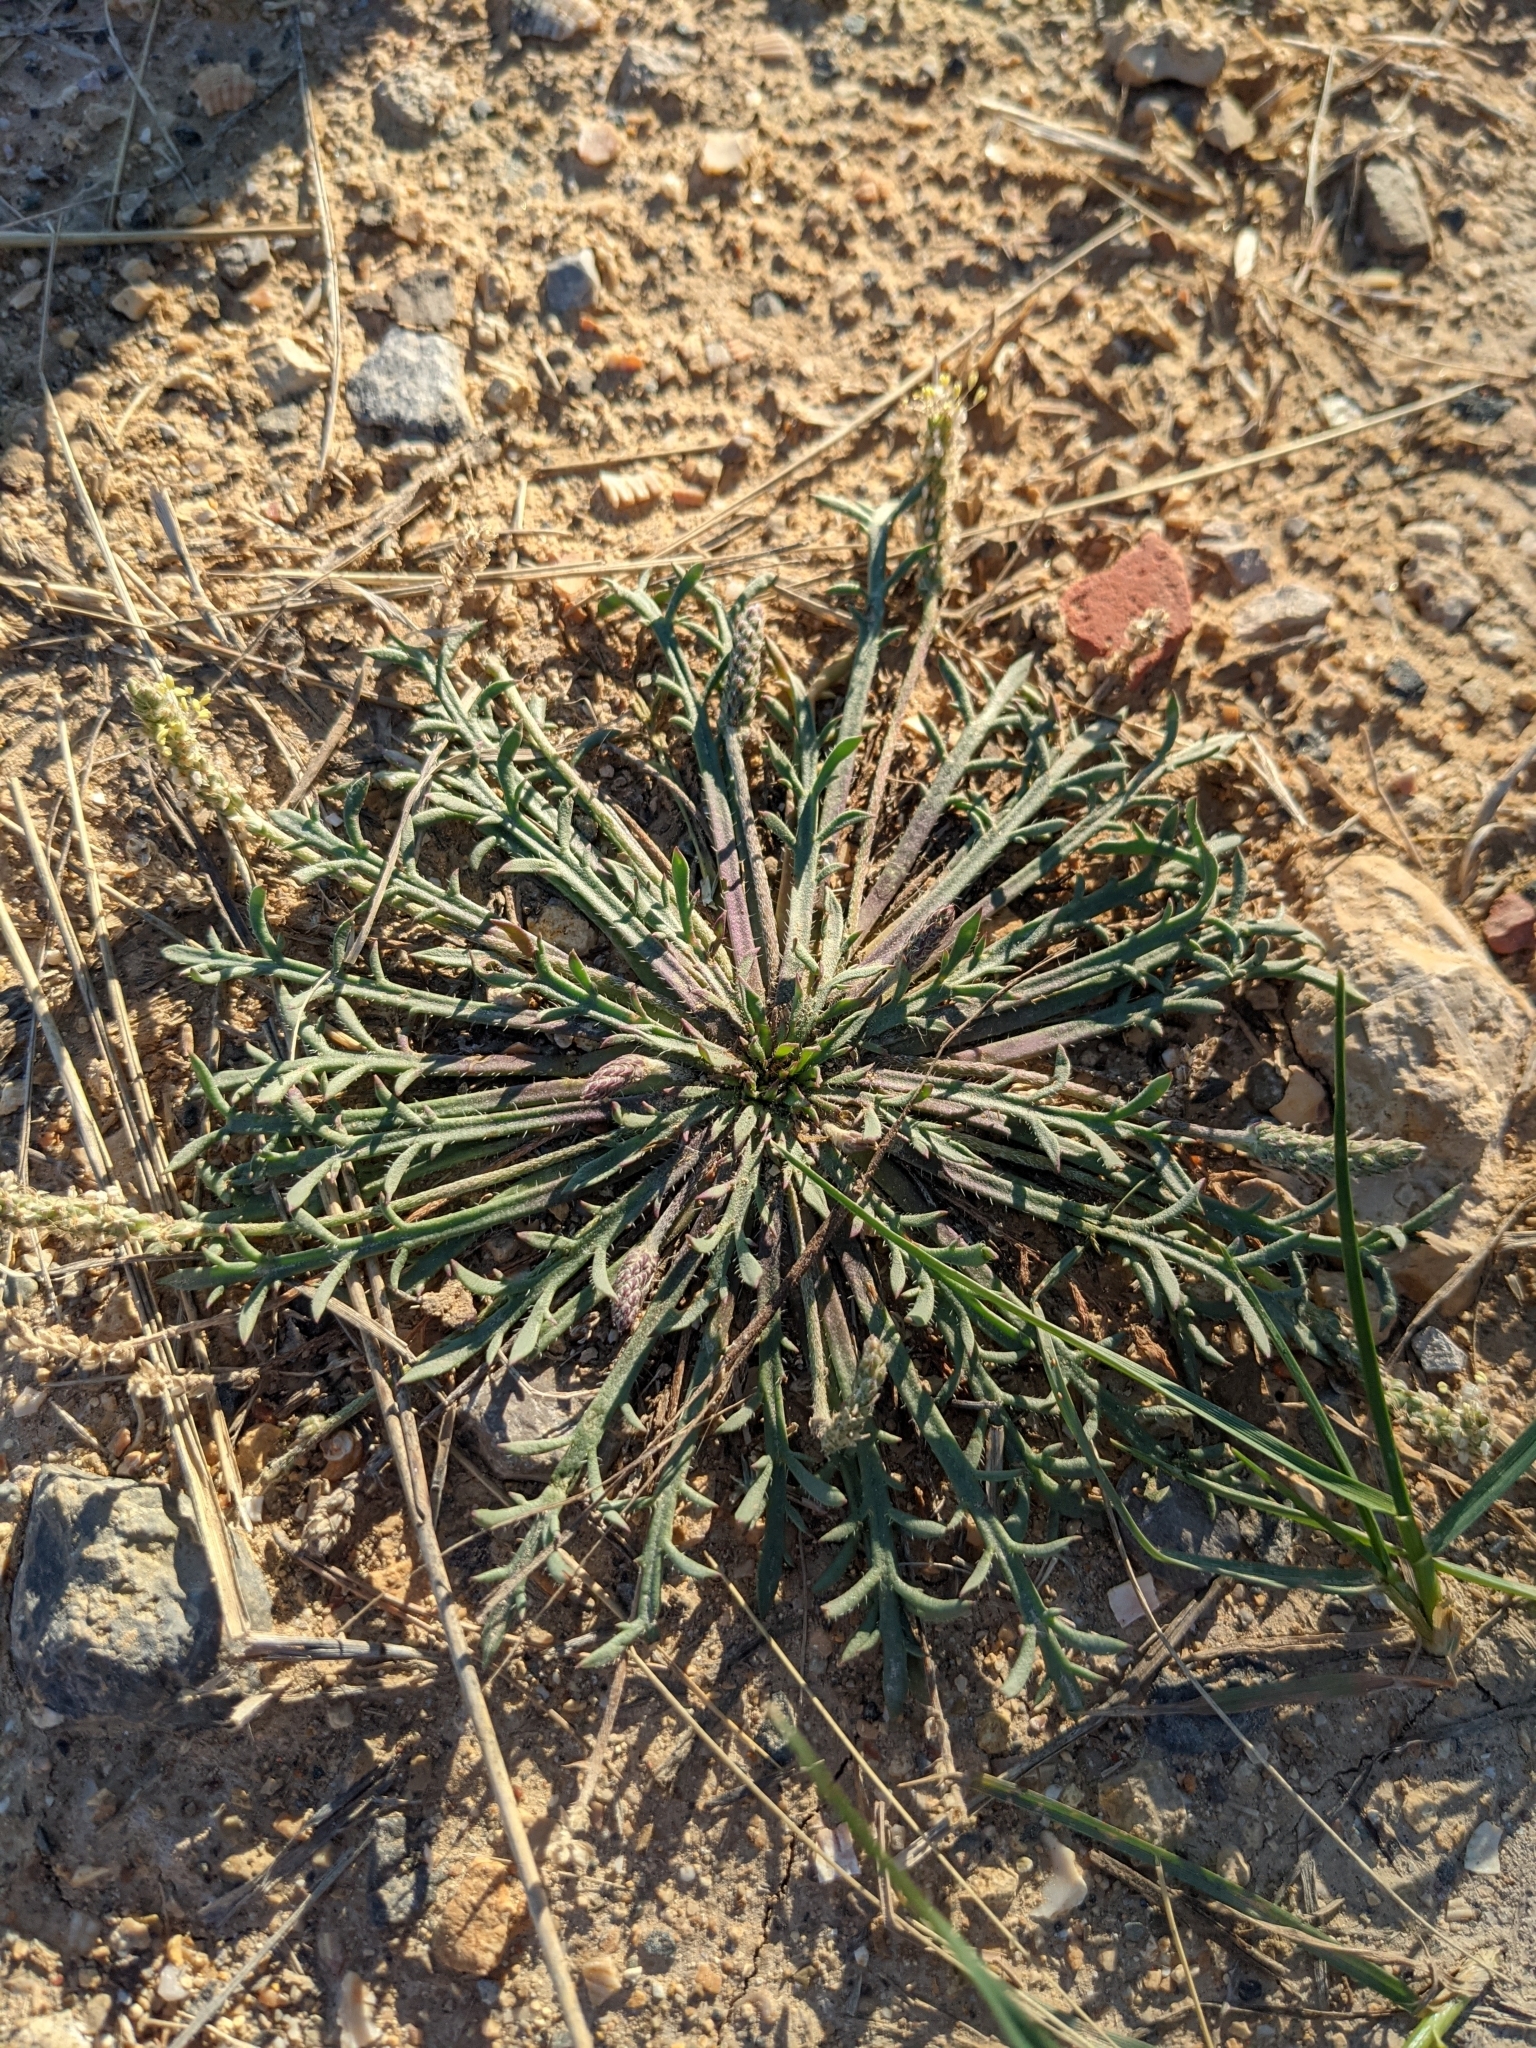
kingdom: Plantae
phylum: Tracheophyta
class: Magnoliopsida
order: Lamiales
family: Plantaginaceae
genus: Plantago
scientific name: Plantago coronopus
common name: Buck's-horn plantain
